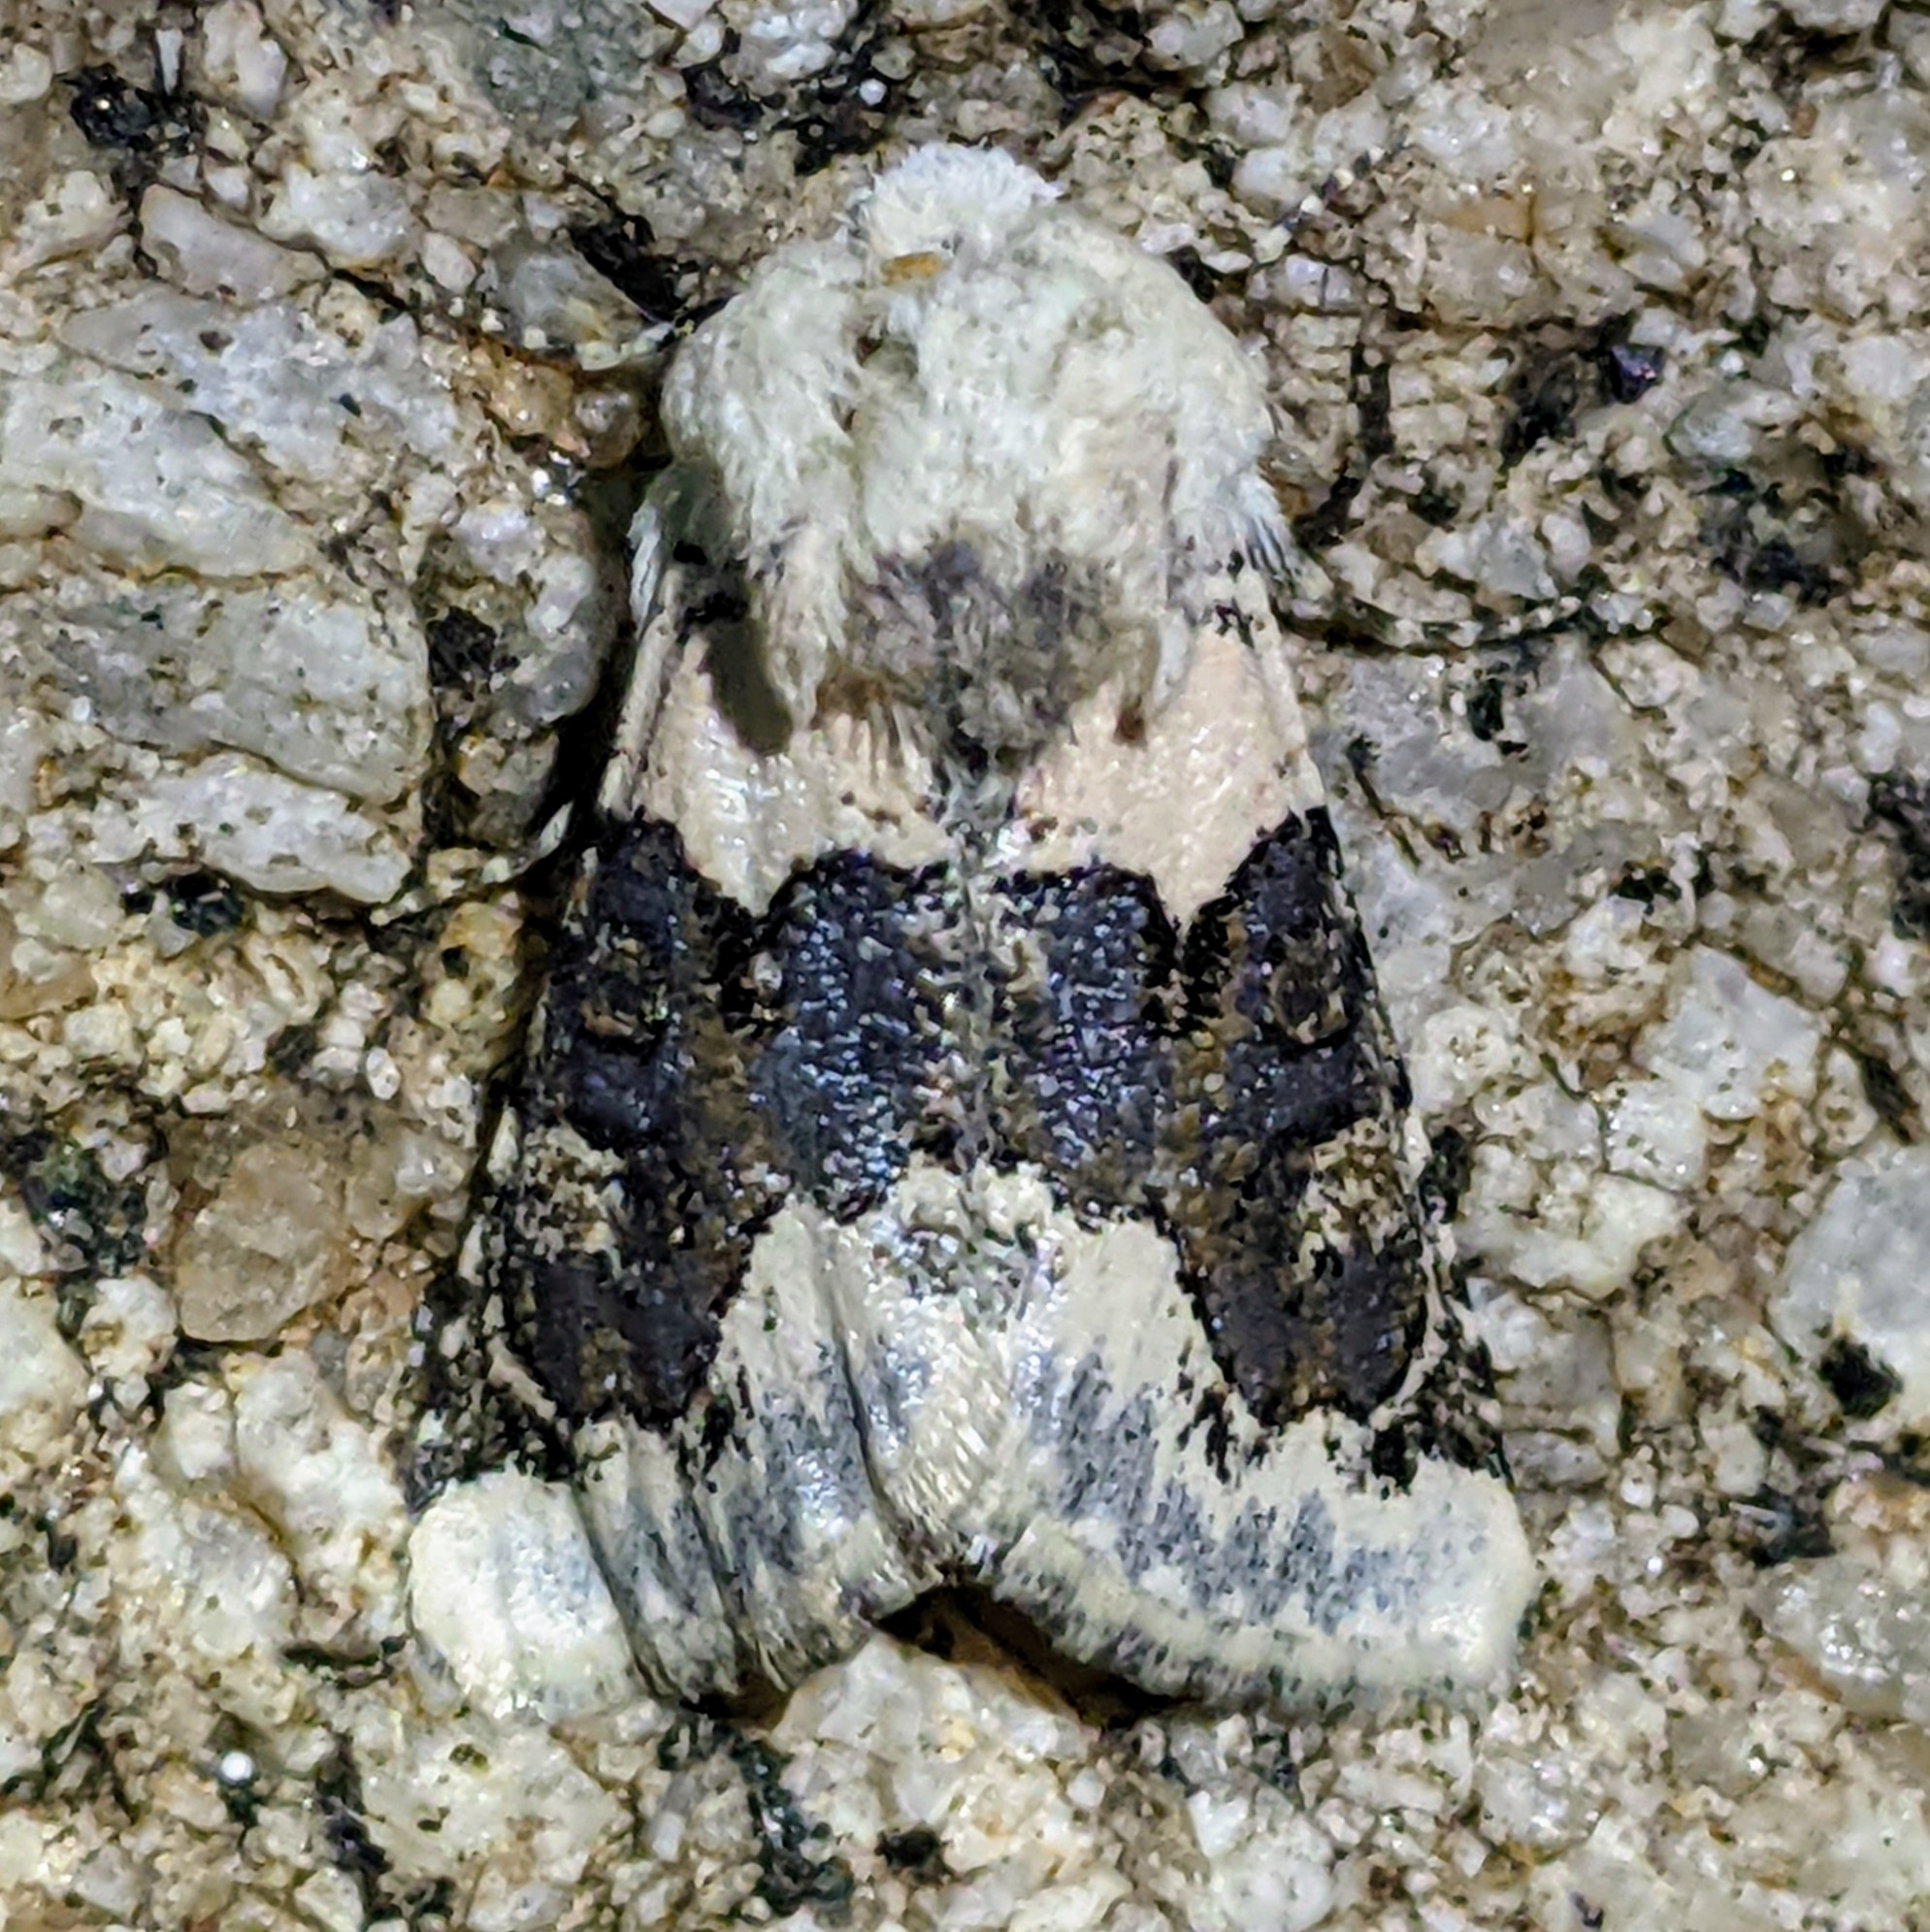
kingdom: Animalia
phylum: Arthropoda
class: Insecta
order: Lepidoptera
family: Noctuidae
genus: Triocnemis
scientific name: Triocnemis saporis
